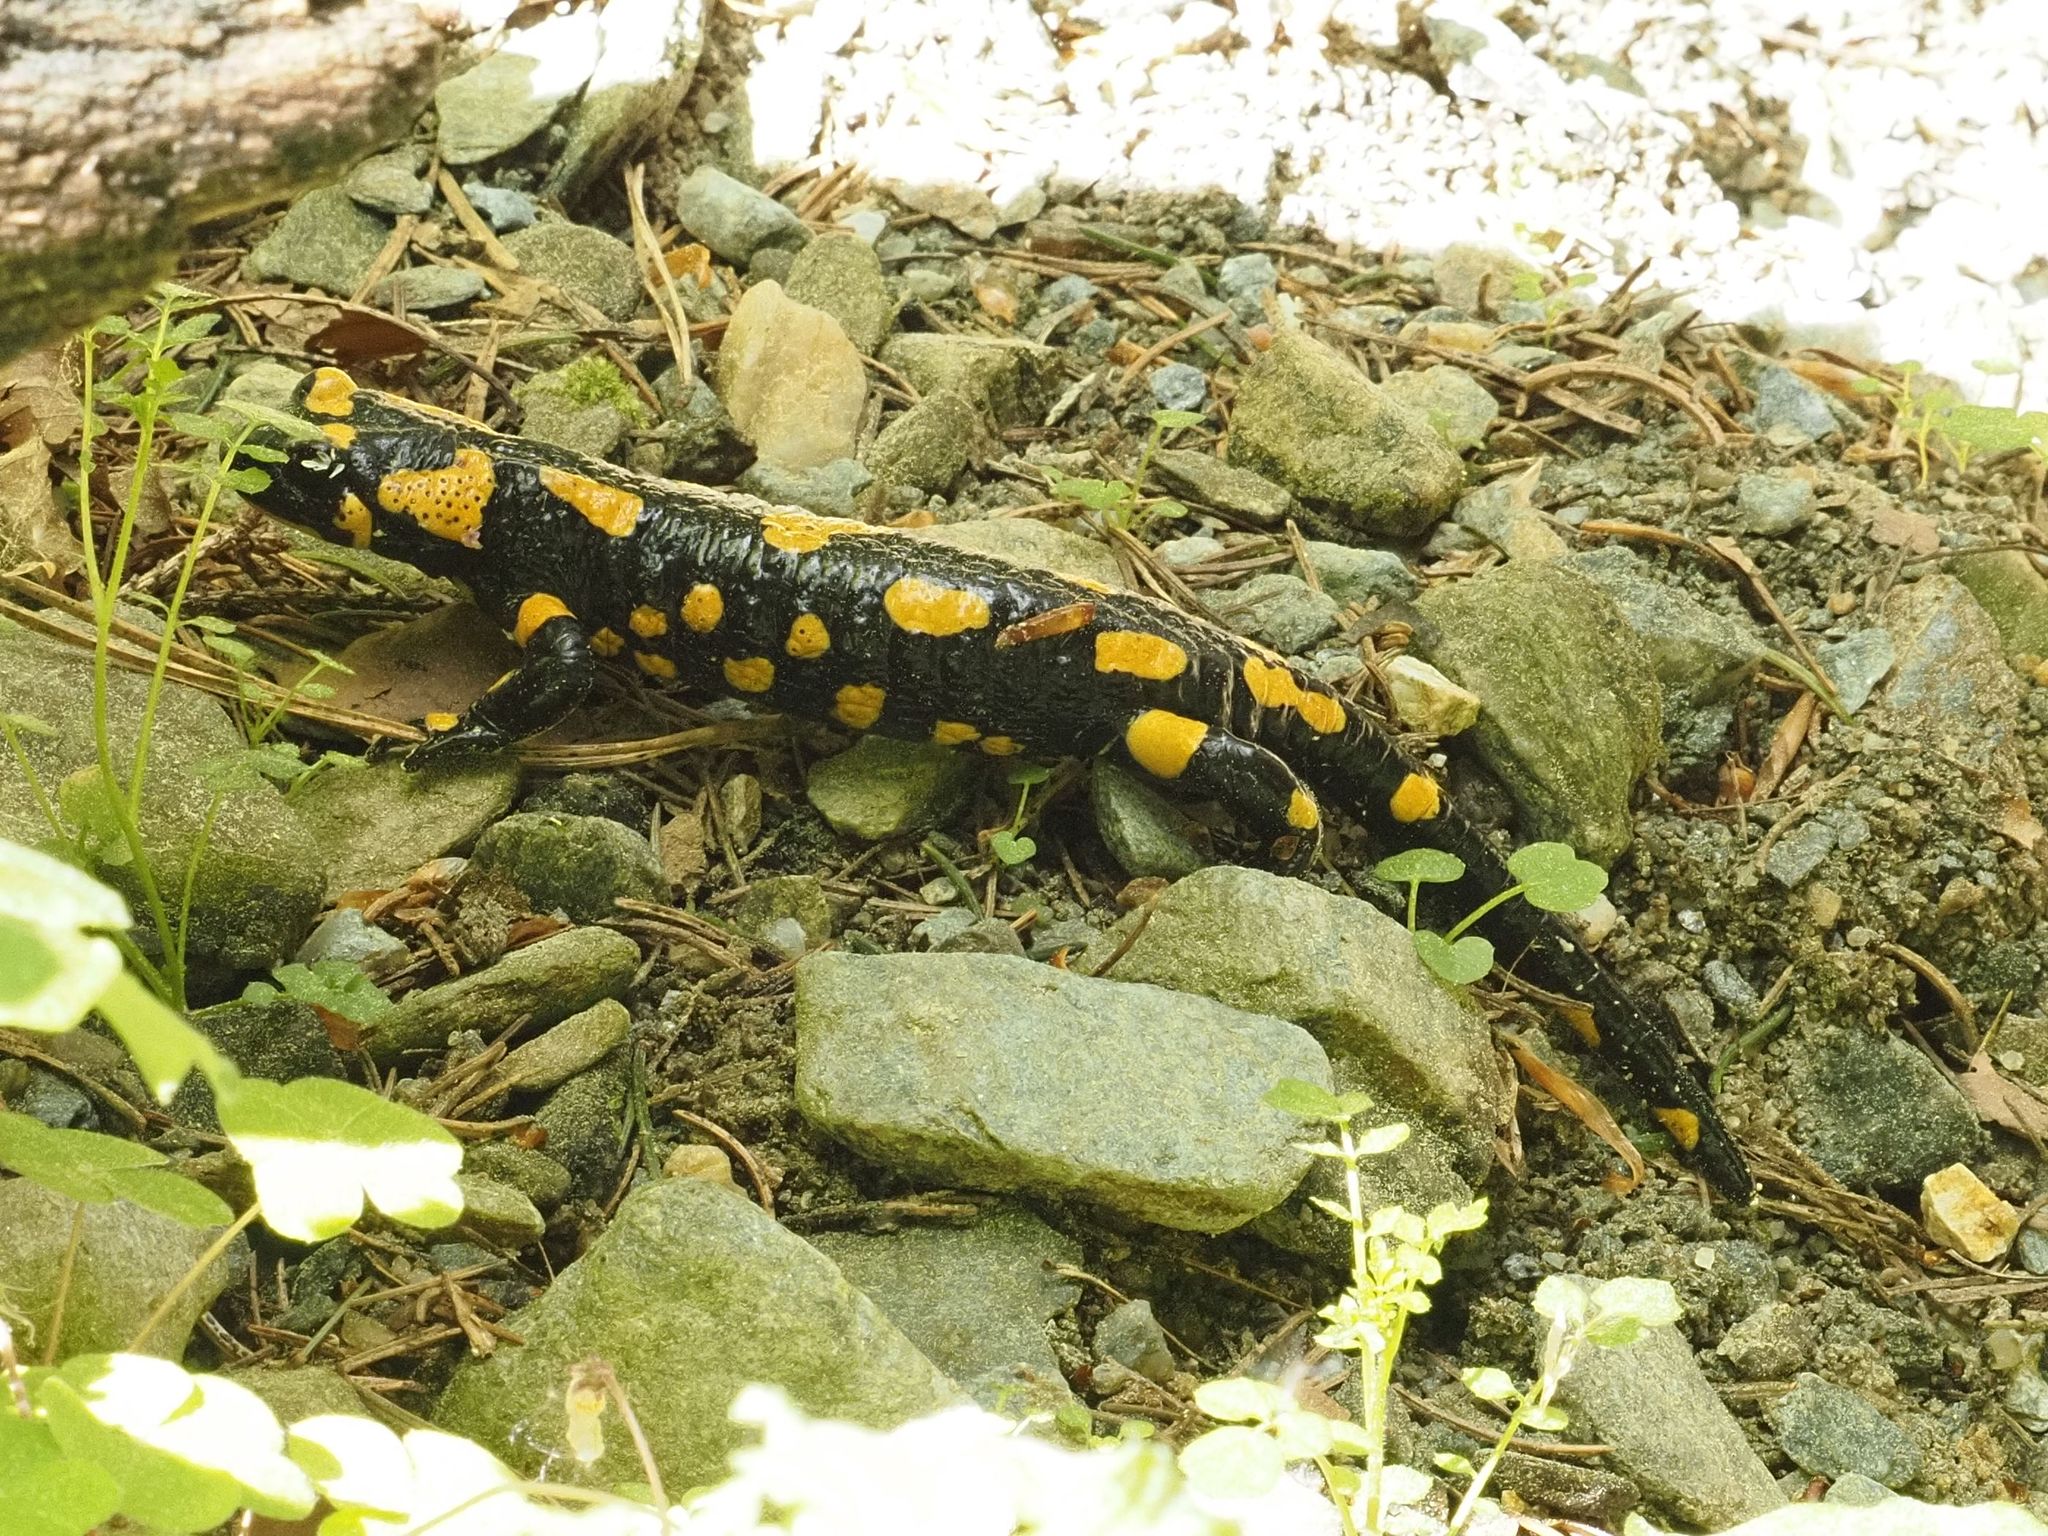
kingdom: Animalia
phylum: Chordata
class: Amphibia
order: Caudata
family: Salamandridae
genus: Salamandra
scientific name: Salamandra salamandra
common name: Fire salamander
